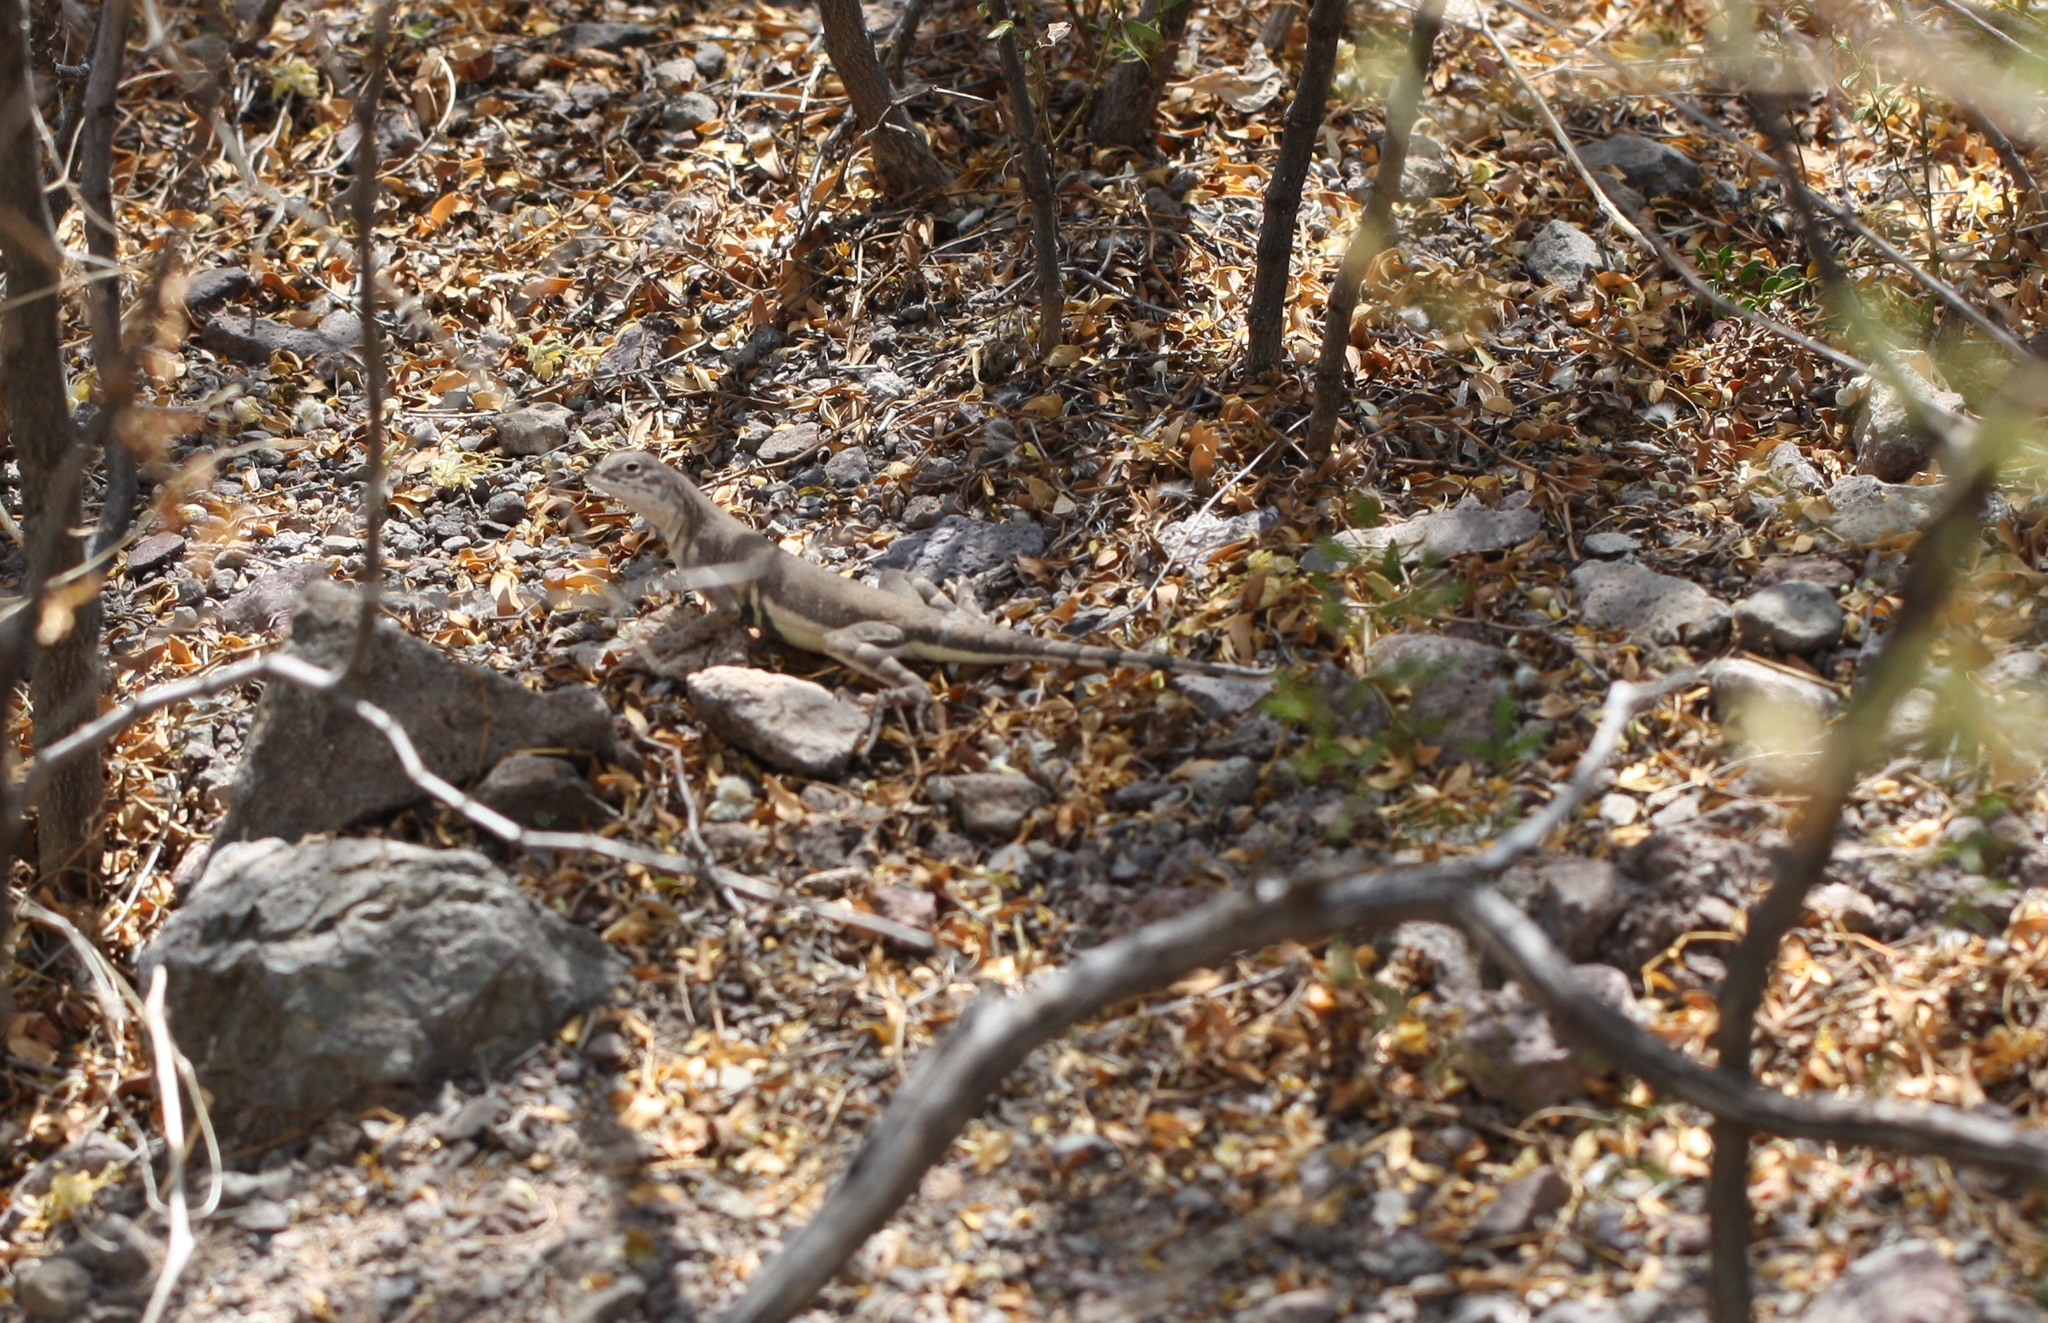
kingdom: Animalia
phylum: Chordata
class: Squamata
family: Phrynosomatidae
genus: Callisaurus
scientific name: Callisaurus draconoides
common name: Zebra-tailed lizard
